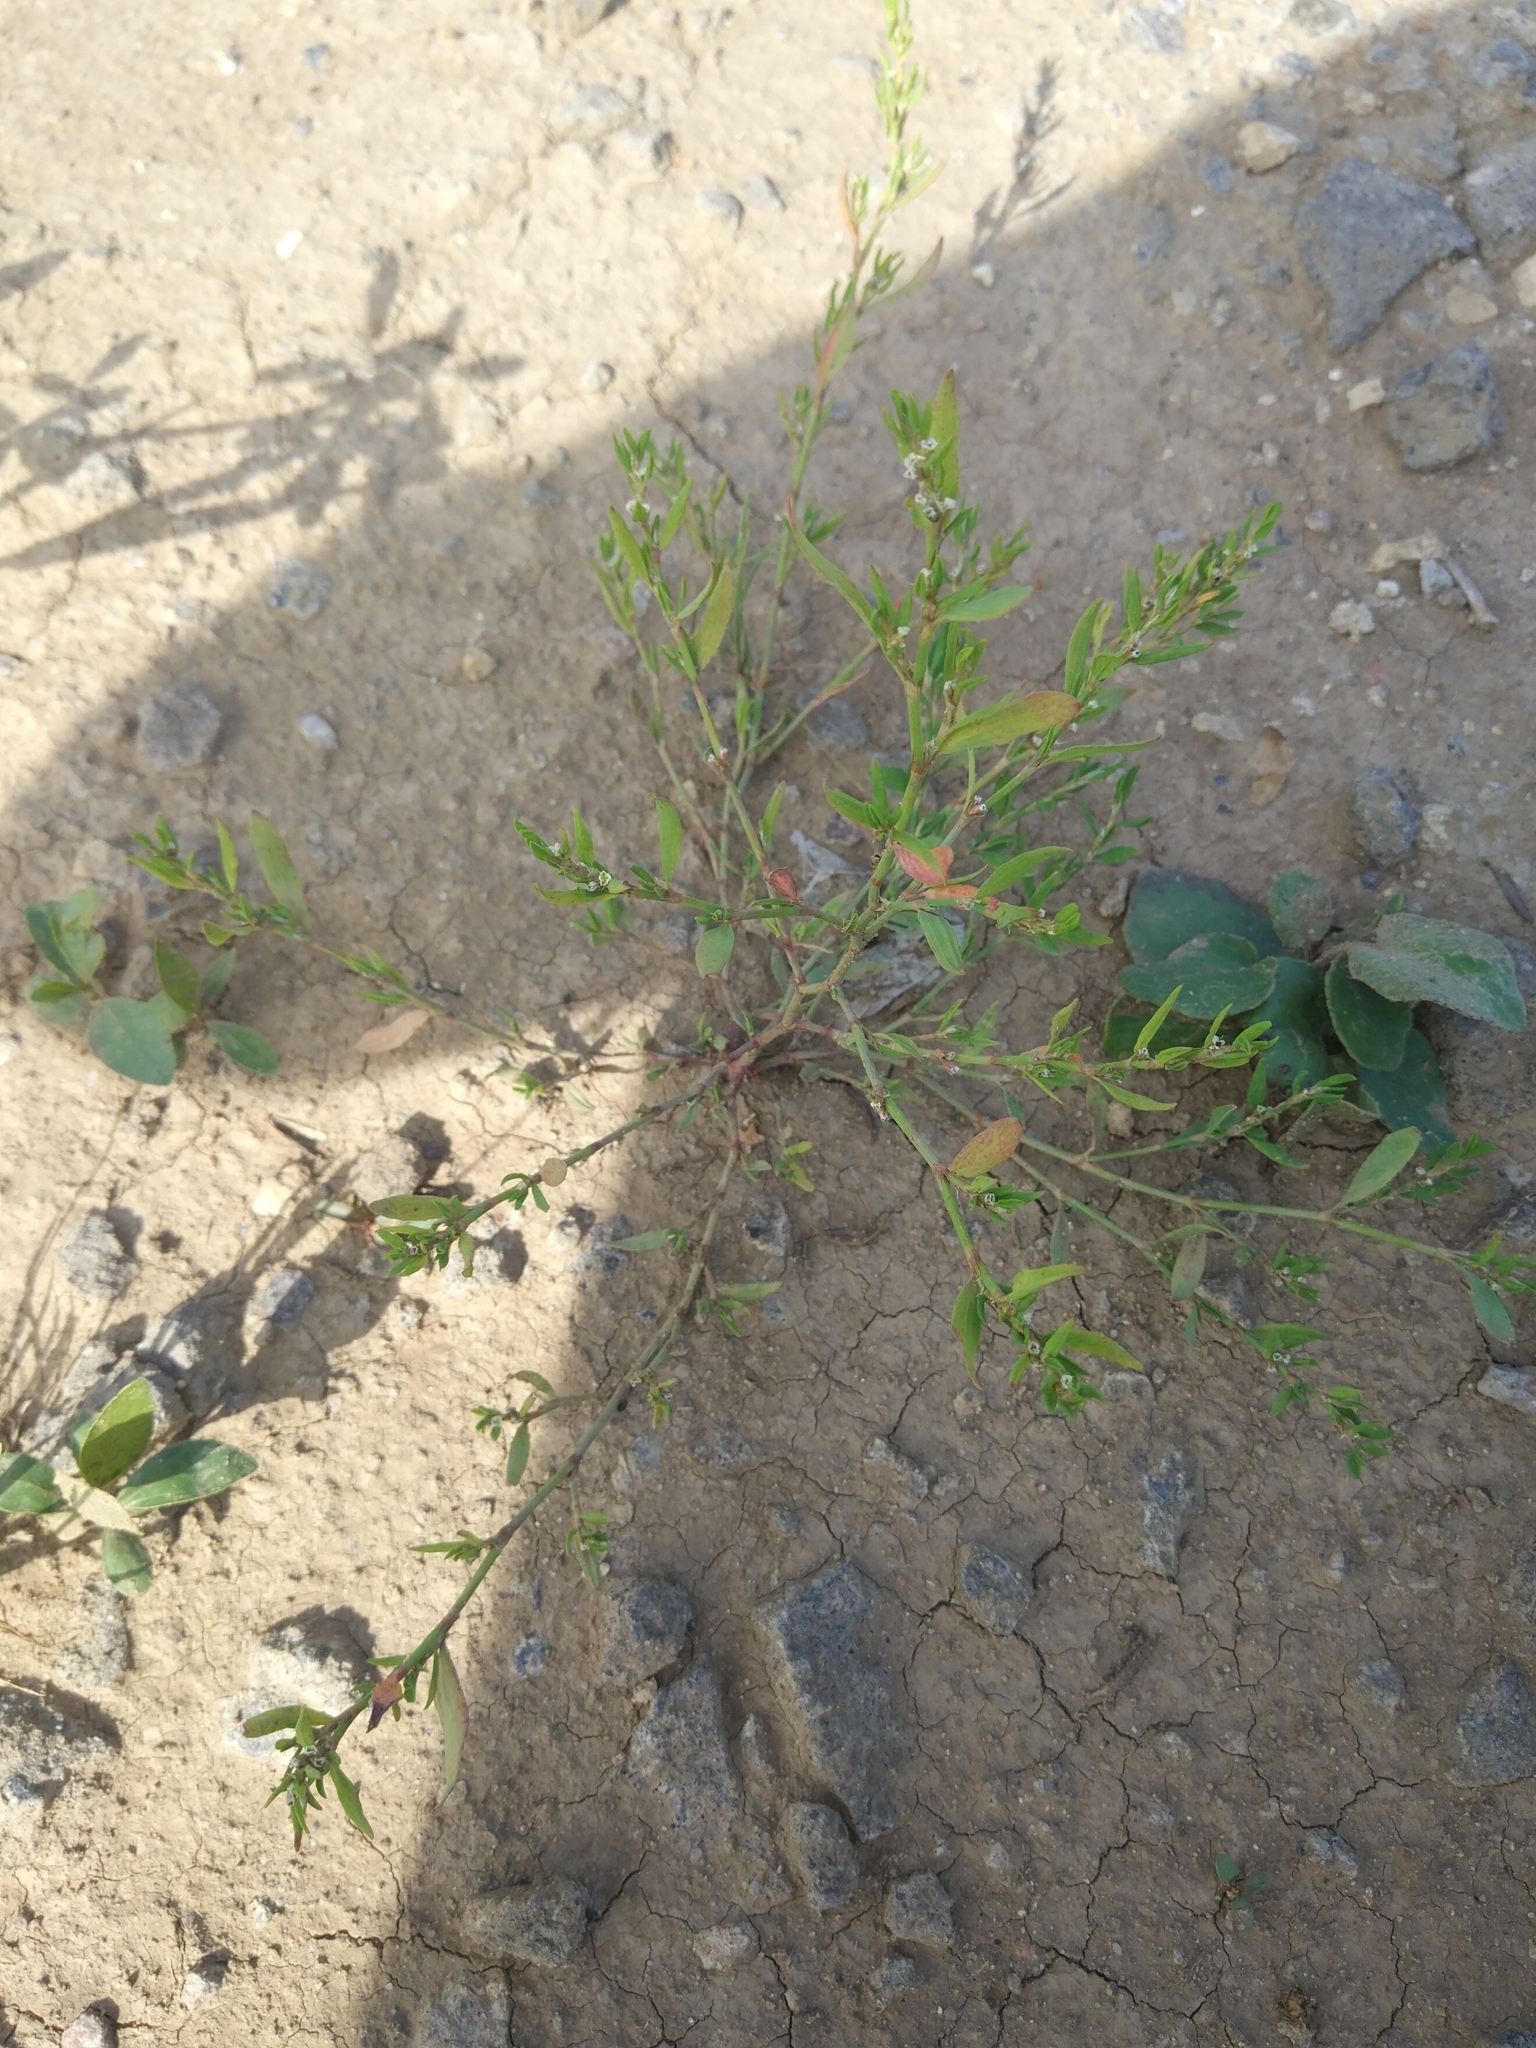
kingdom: Plantae
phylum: Tracheophyta
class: Magnoliopsida
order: Caryophyllales
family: Polygonaceae
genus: Polygonum
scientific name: Polygonum
